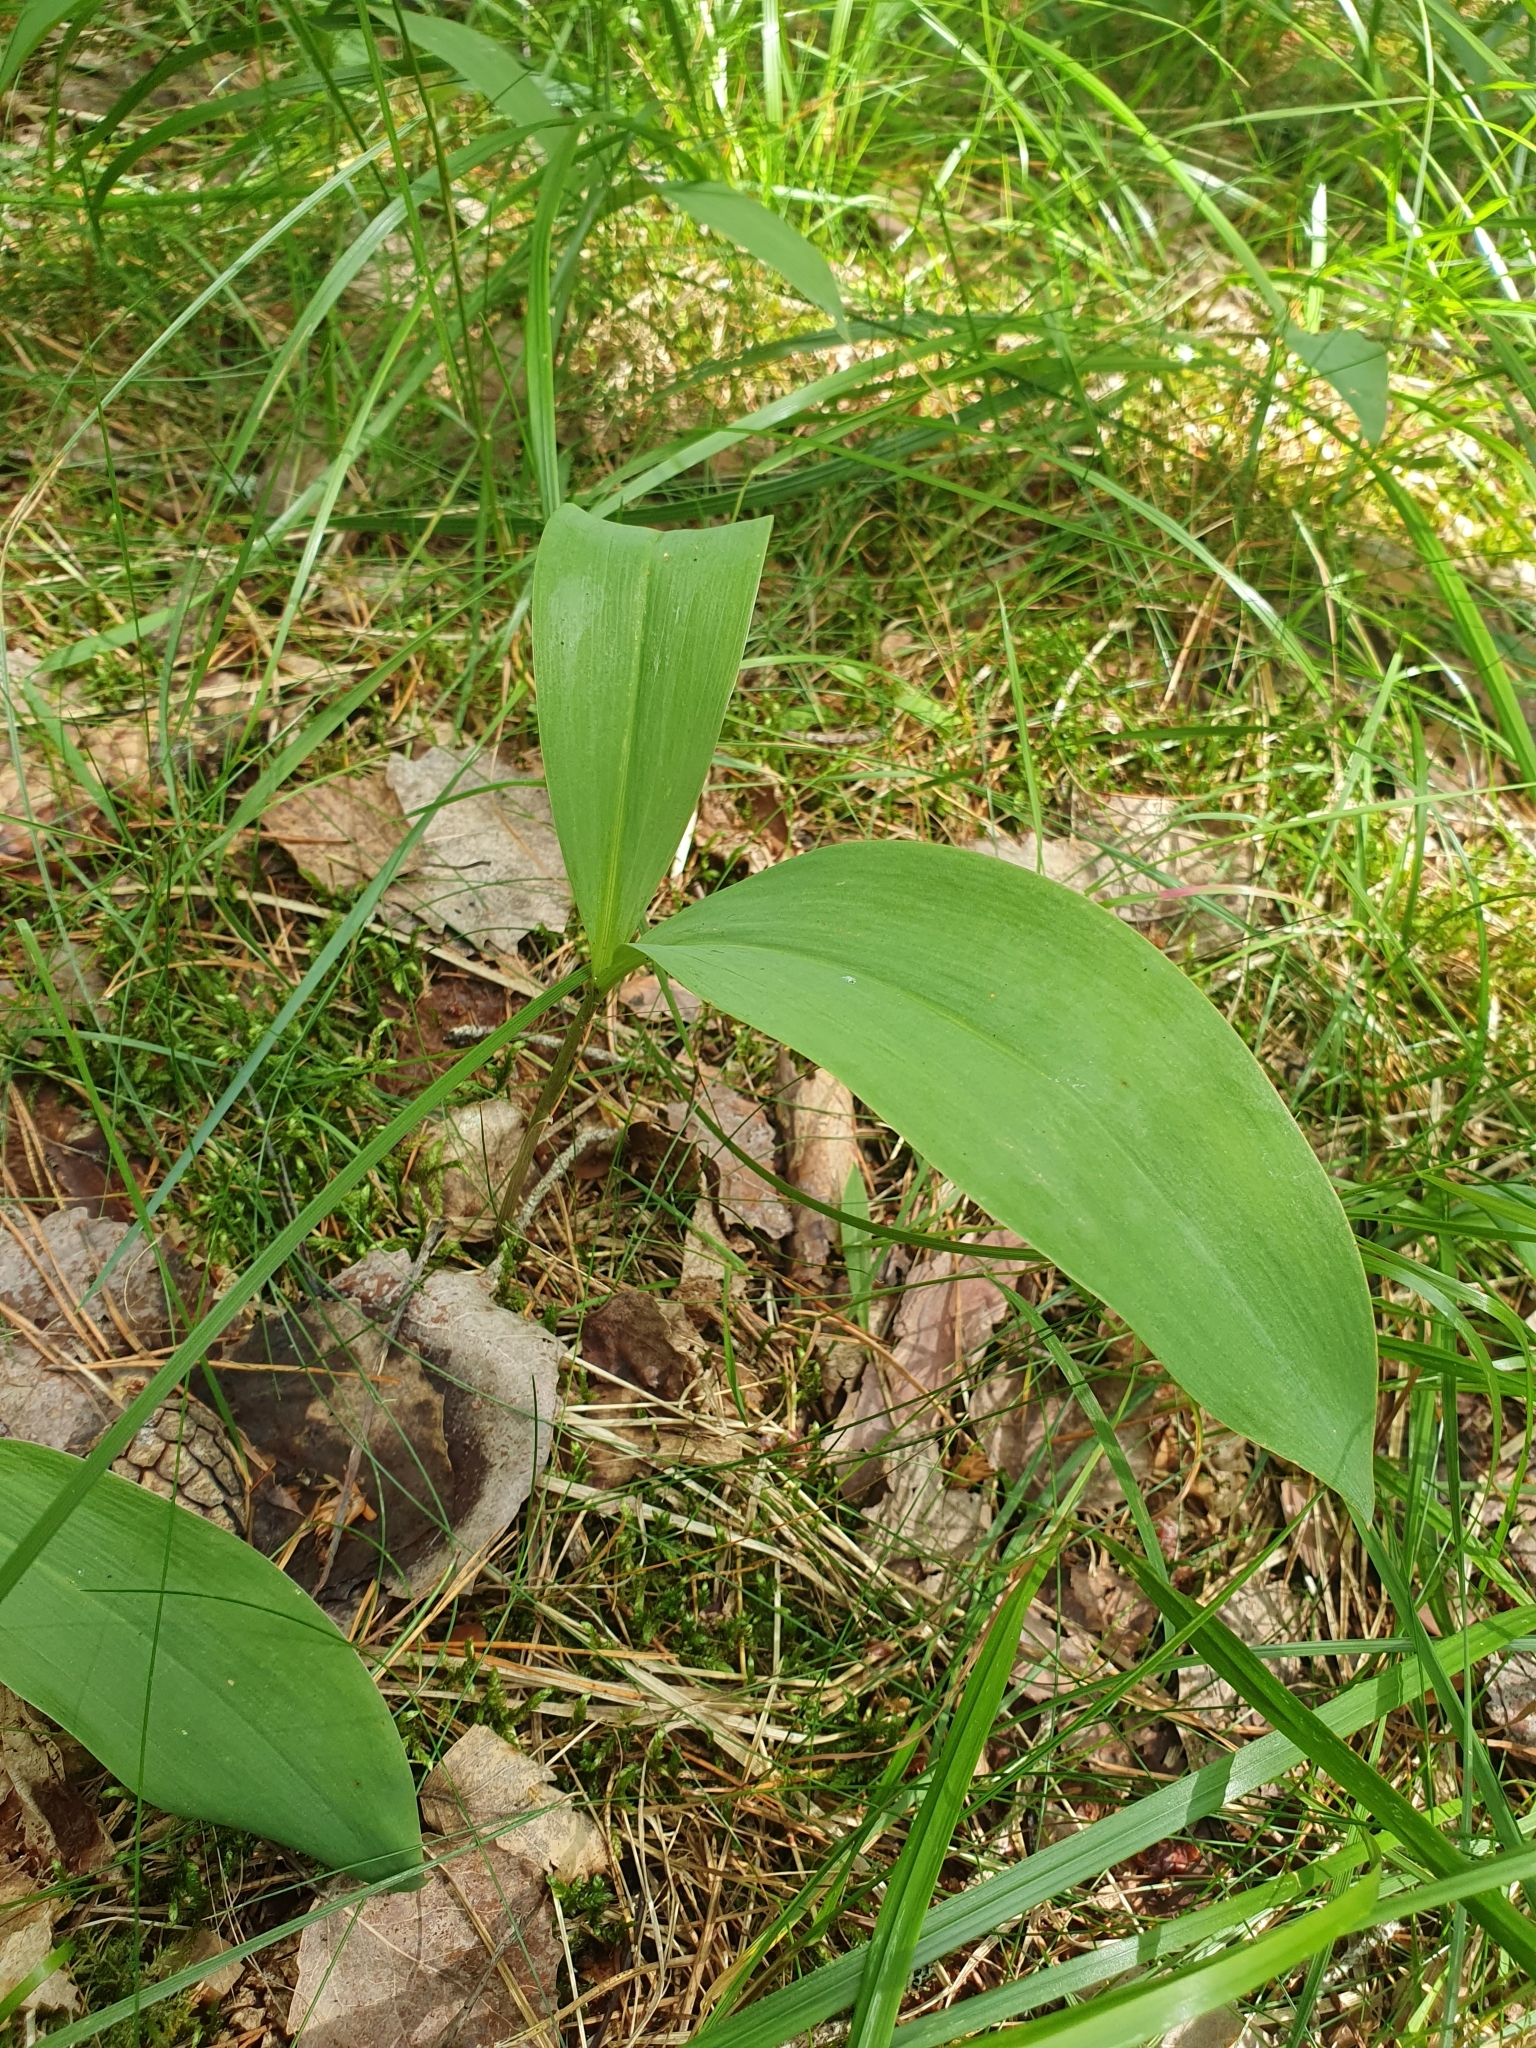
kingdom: Plantae
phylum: Tracheophyta
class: Liliopsida
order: Asparagales
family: Asparagaceae
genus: Convallaria
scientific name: Convallaria majalis
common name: Lily-of-the-valley
